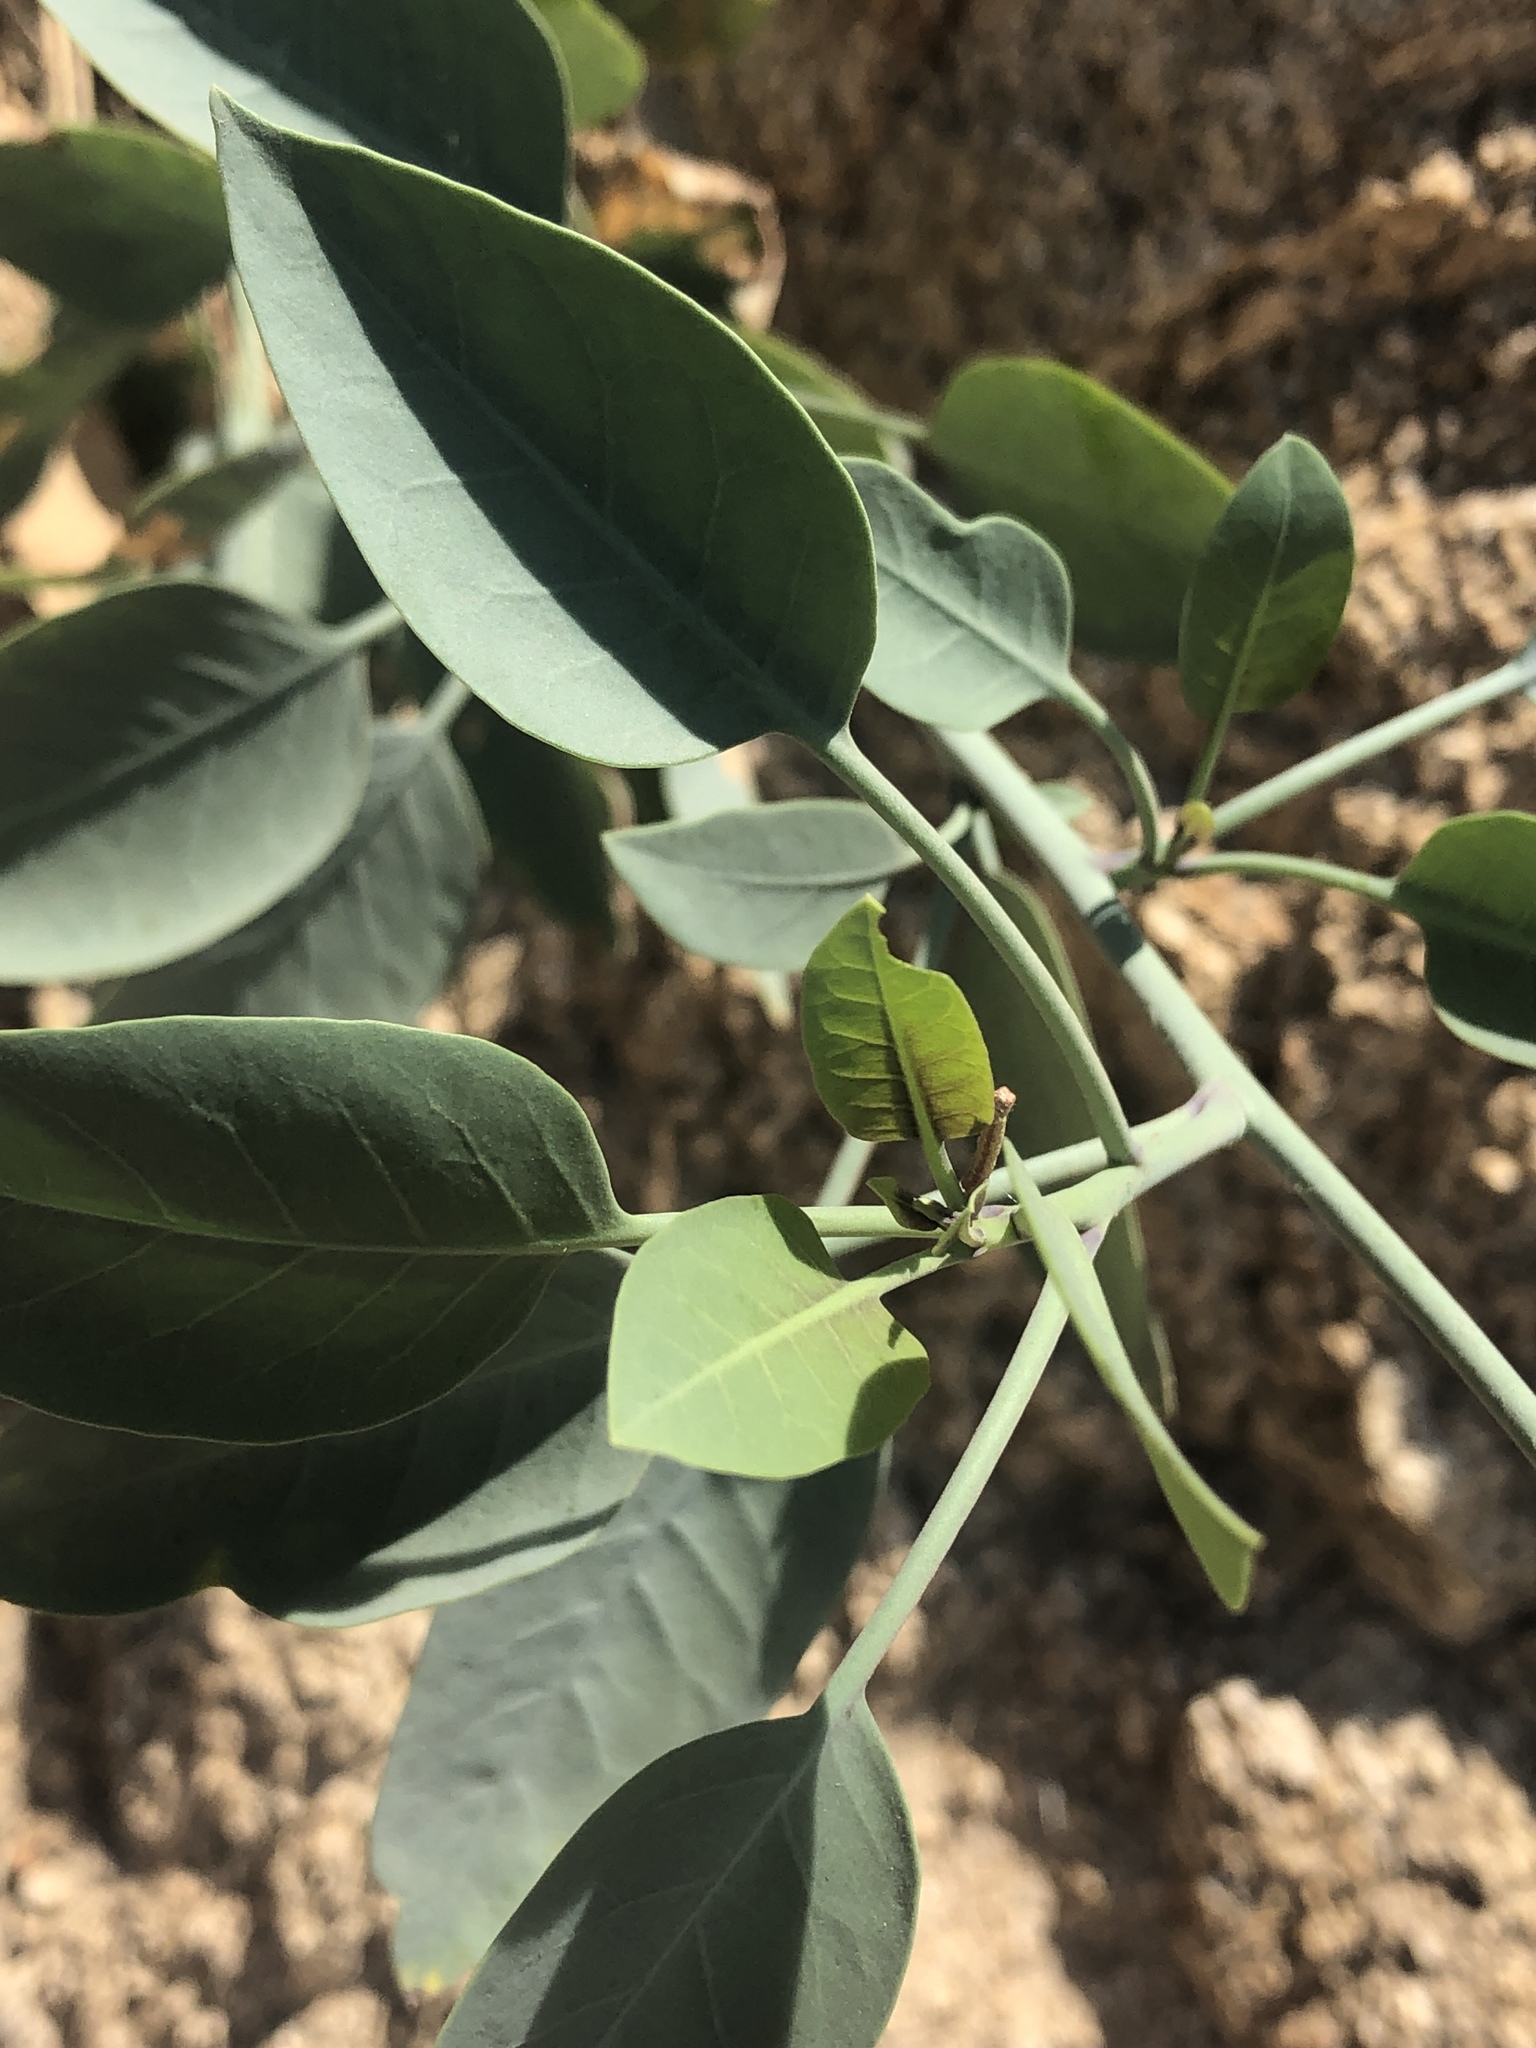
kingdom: Plantae
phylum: Tracheophyta
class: Magnoliopsida
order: Solanales
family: Solanaceae
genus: Nicotiana
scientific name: Nicotiana glauca
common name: Tree tobacco
